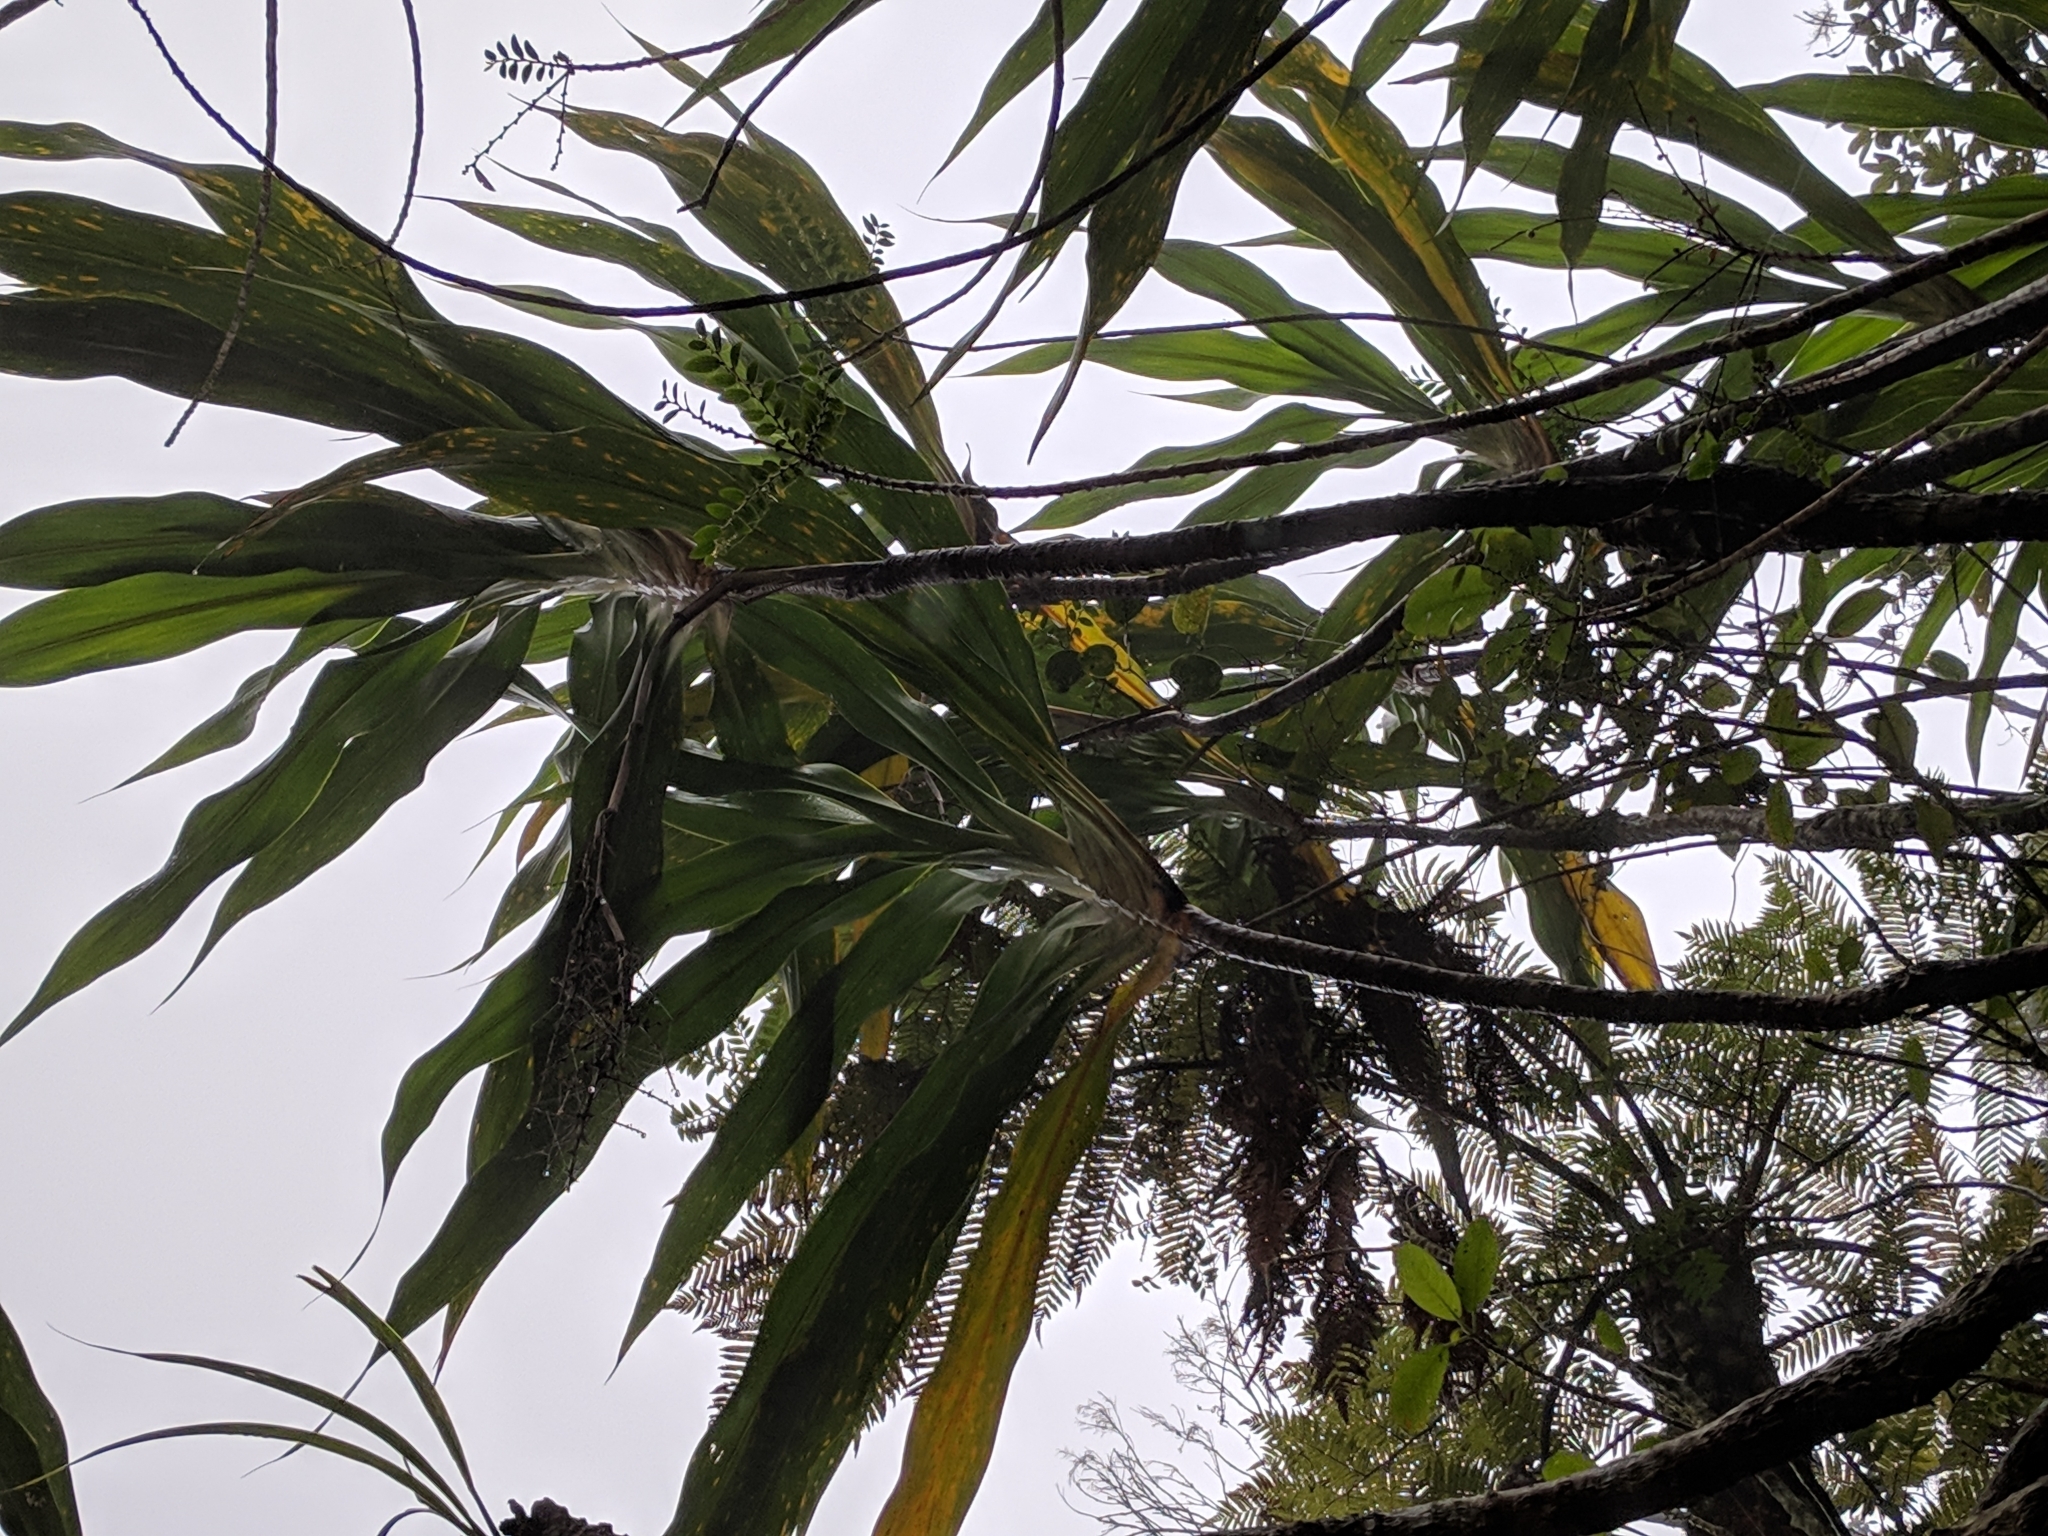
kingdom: Plantae
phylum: Tracheophyta
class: Liliopsida
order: Asparagales
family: Asparagaceae
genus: Cordyline
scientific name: Cordyline mauritiana
